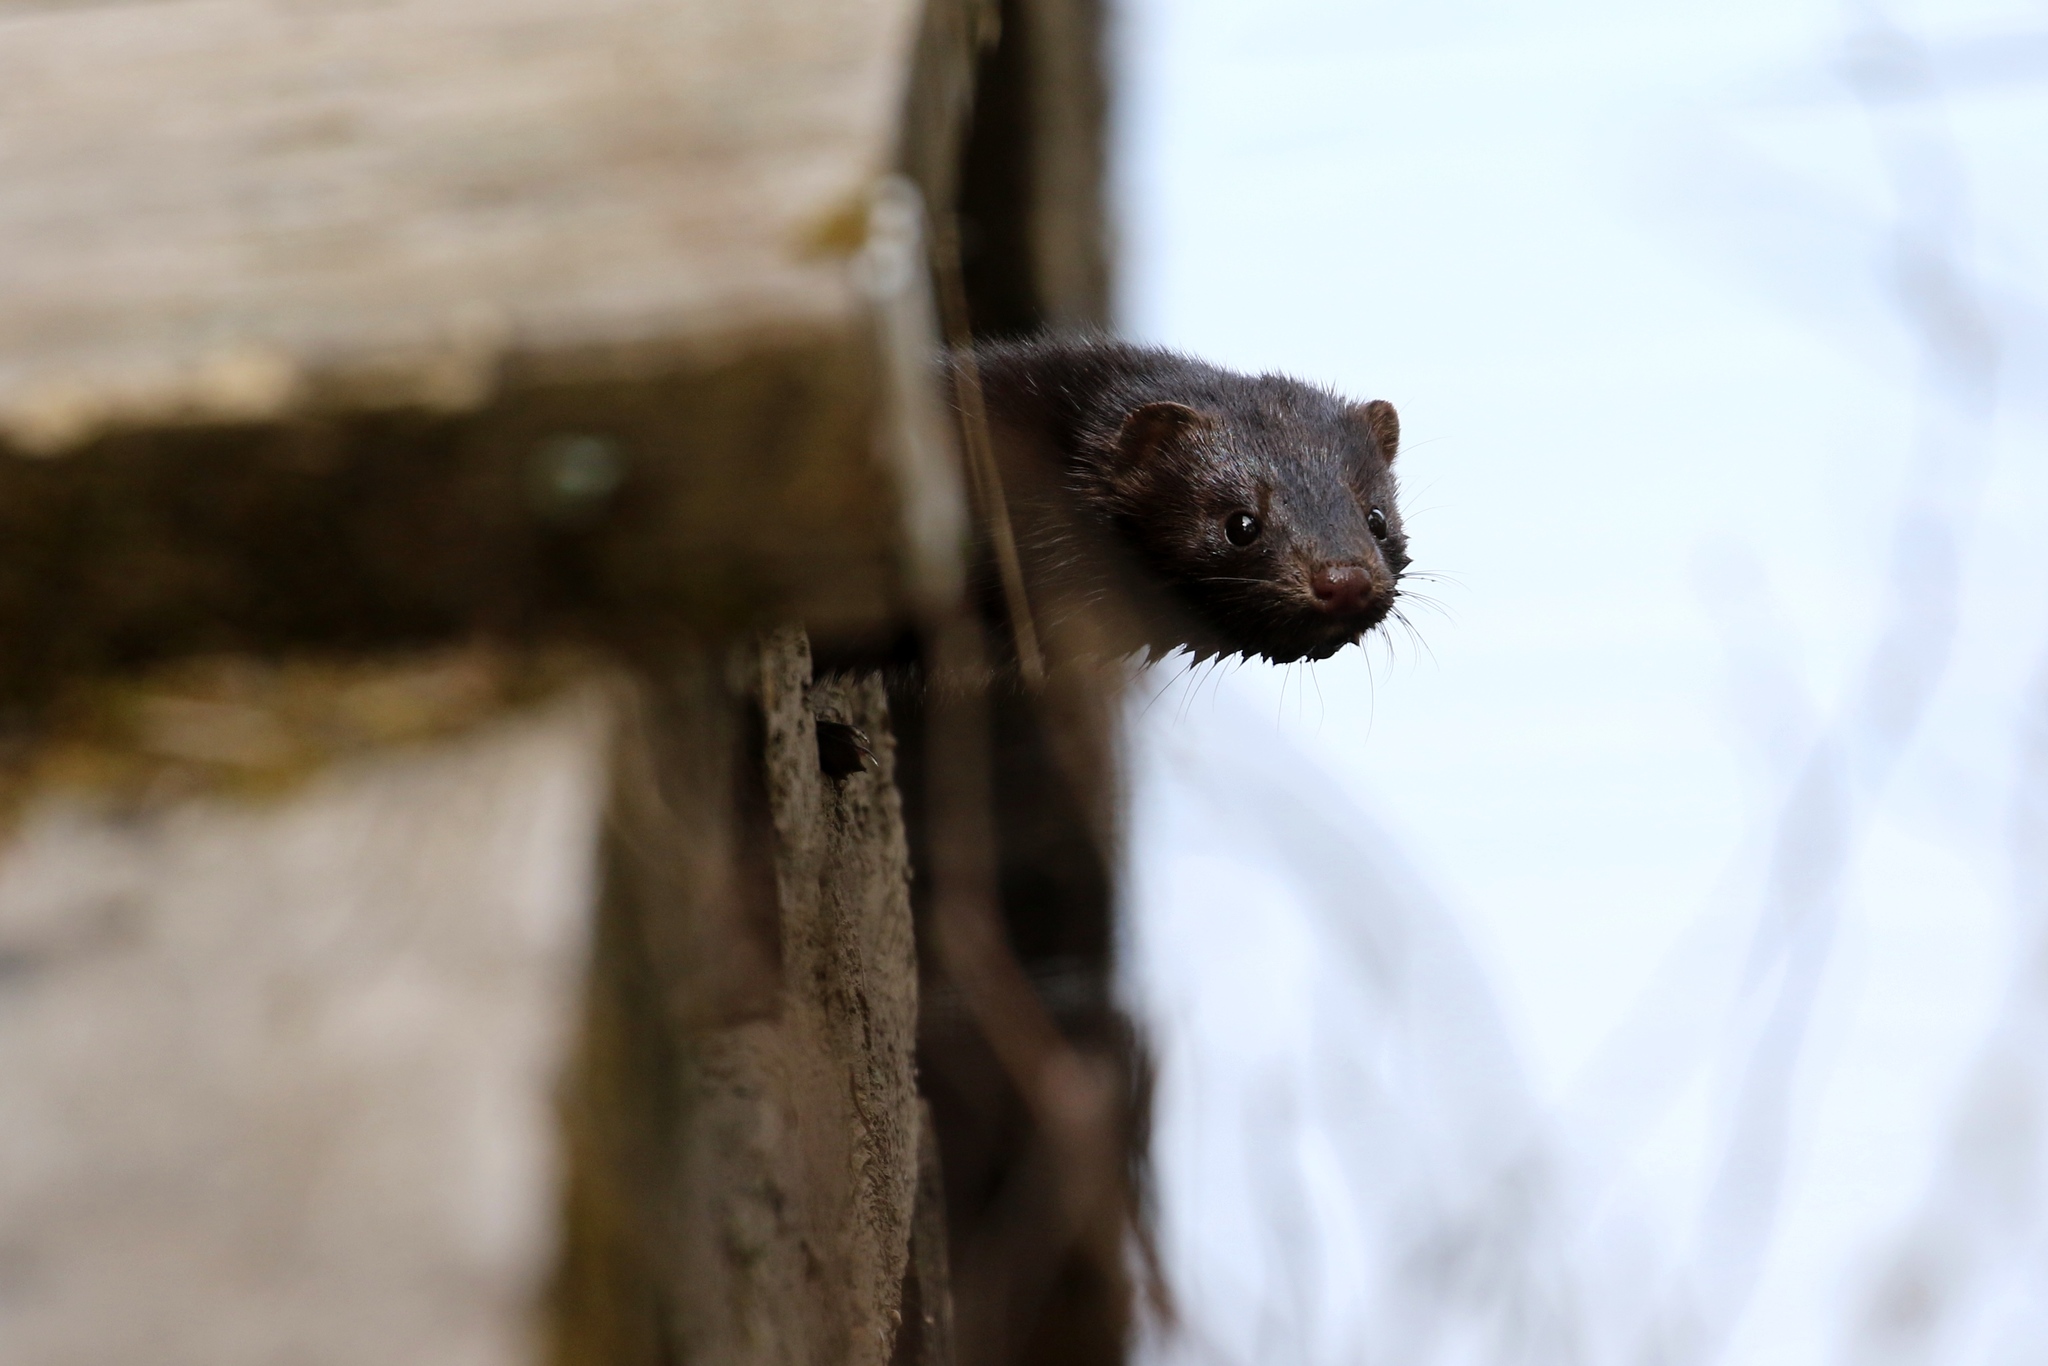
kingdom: Animalia
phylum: Chordata
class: Mammalia
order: Carnivora
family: Mustelidae
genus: Mustela
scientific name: Mustela
